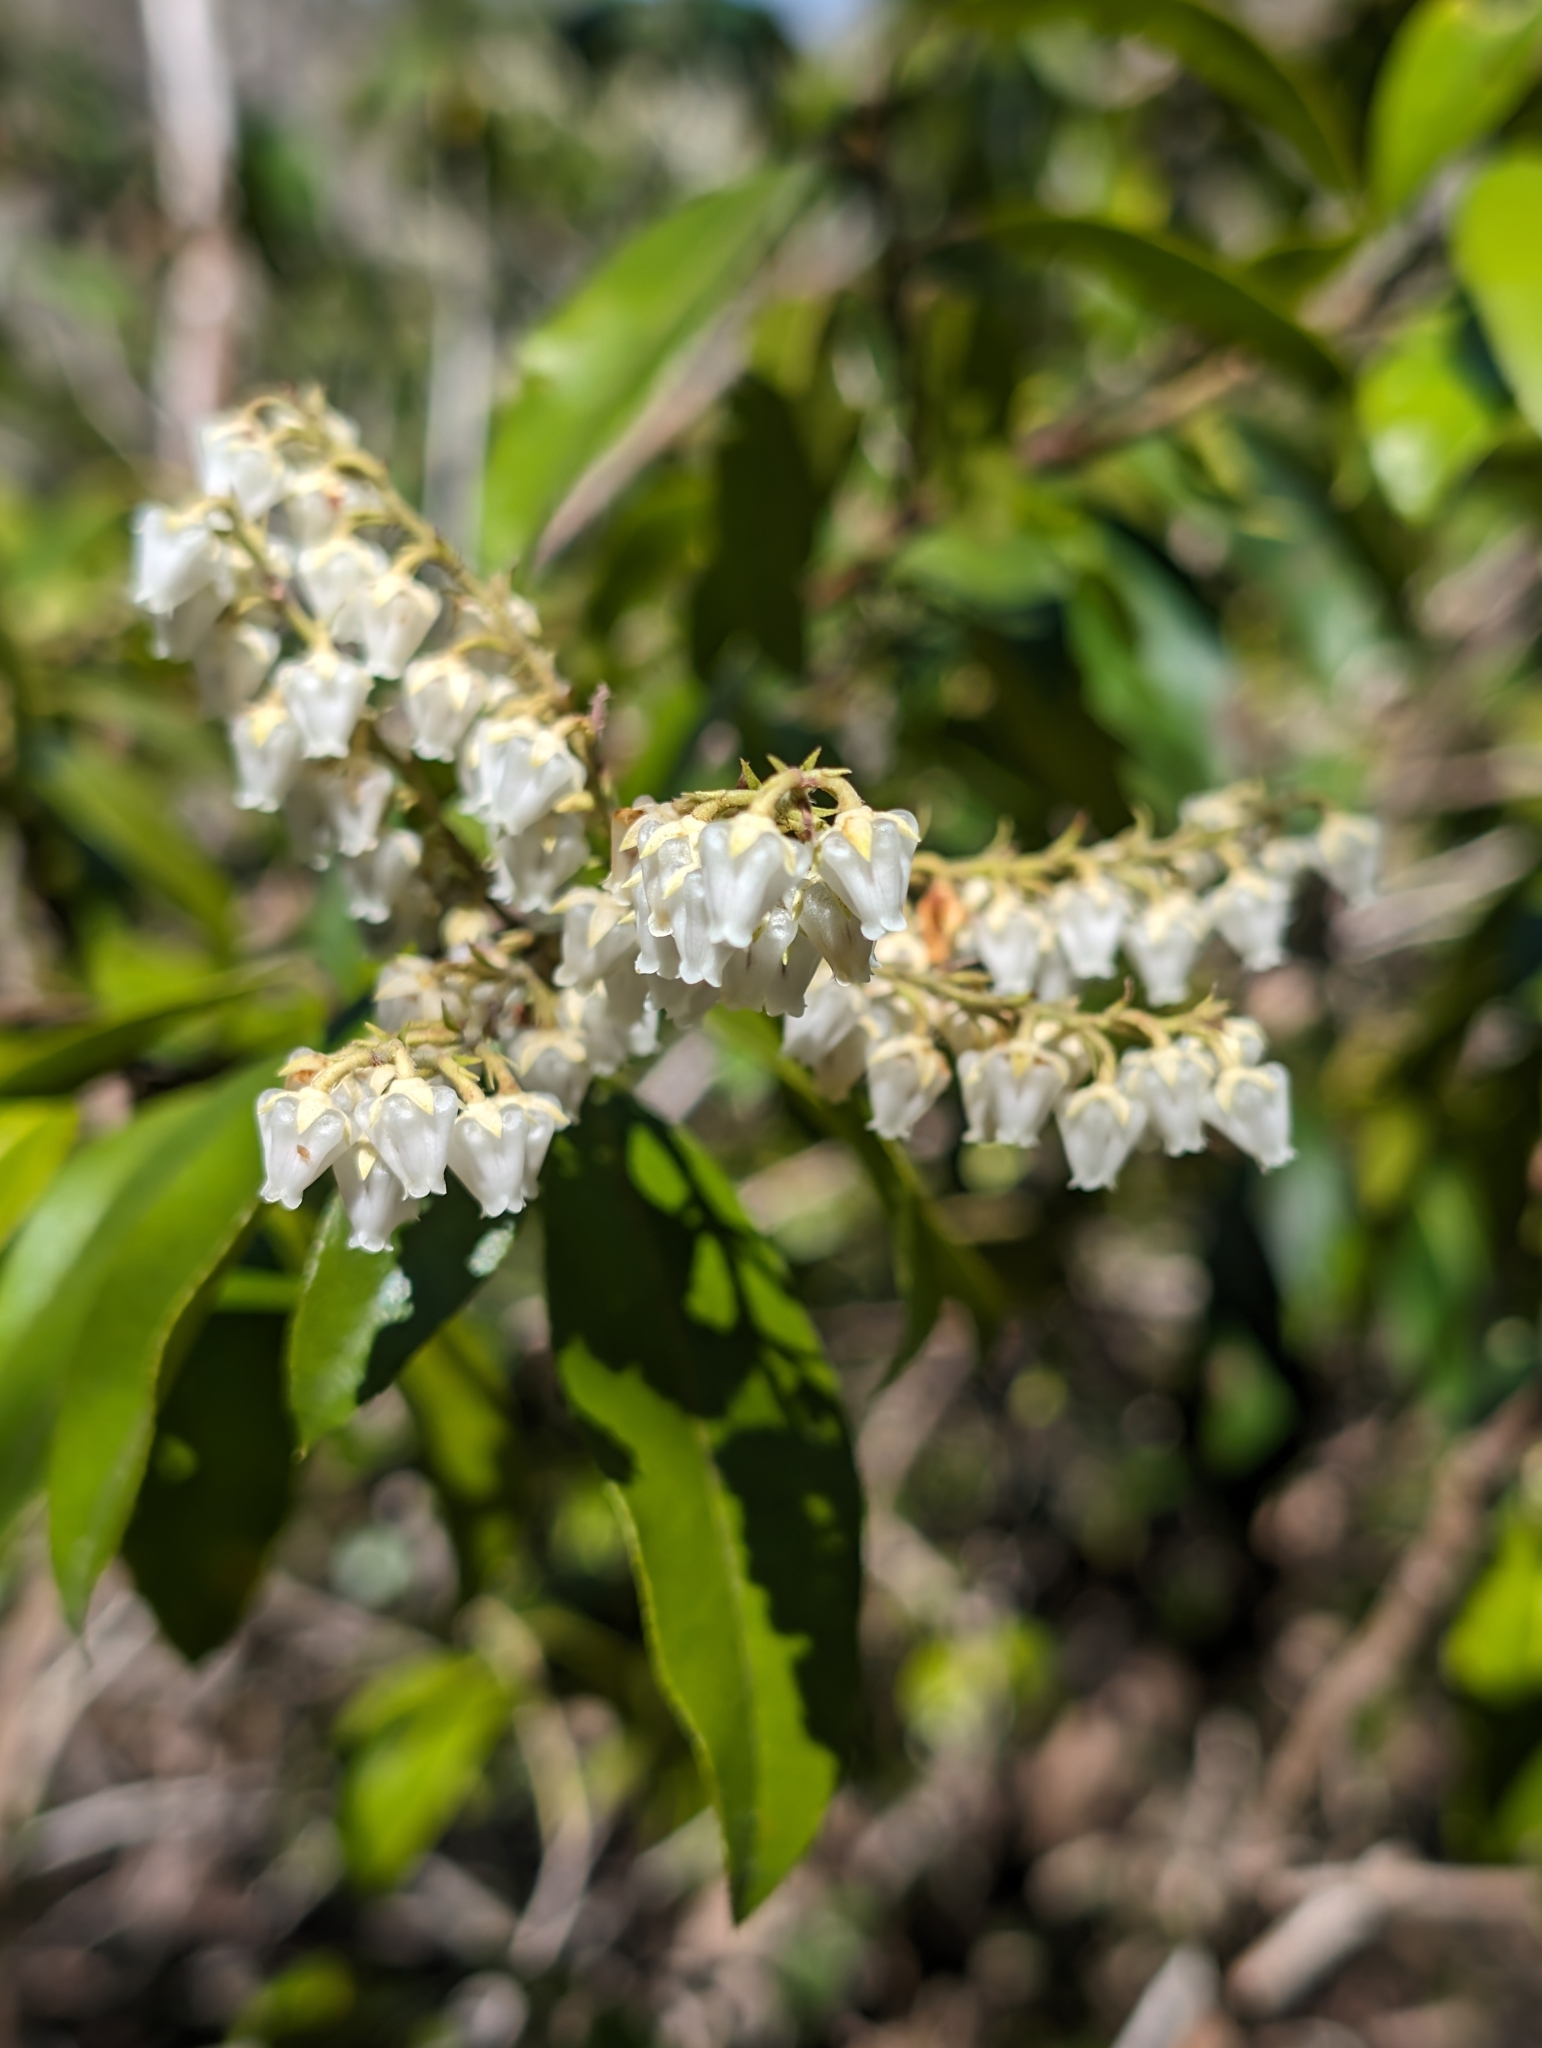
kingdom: Plantae
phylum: Tracheophyta
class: Magnoliopsida
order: Ericales
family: Ericaceae
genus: Pieris
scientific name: Pieris floribunda
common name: Flutterbush
